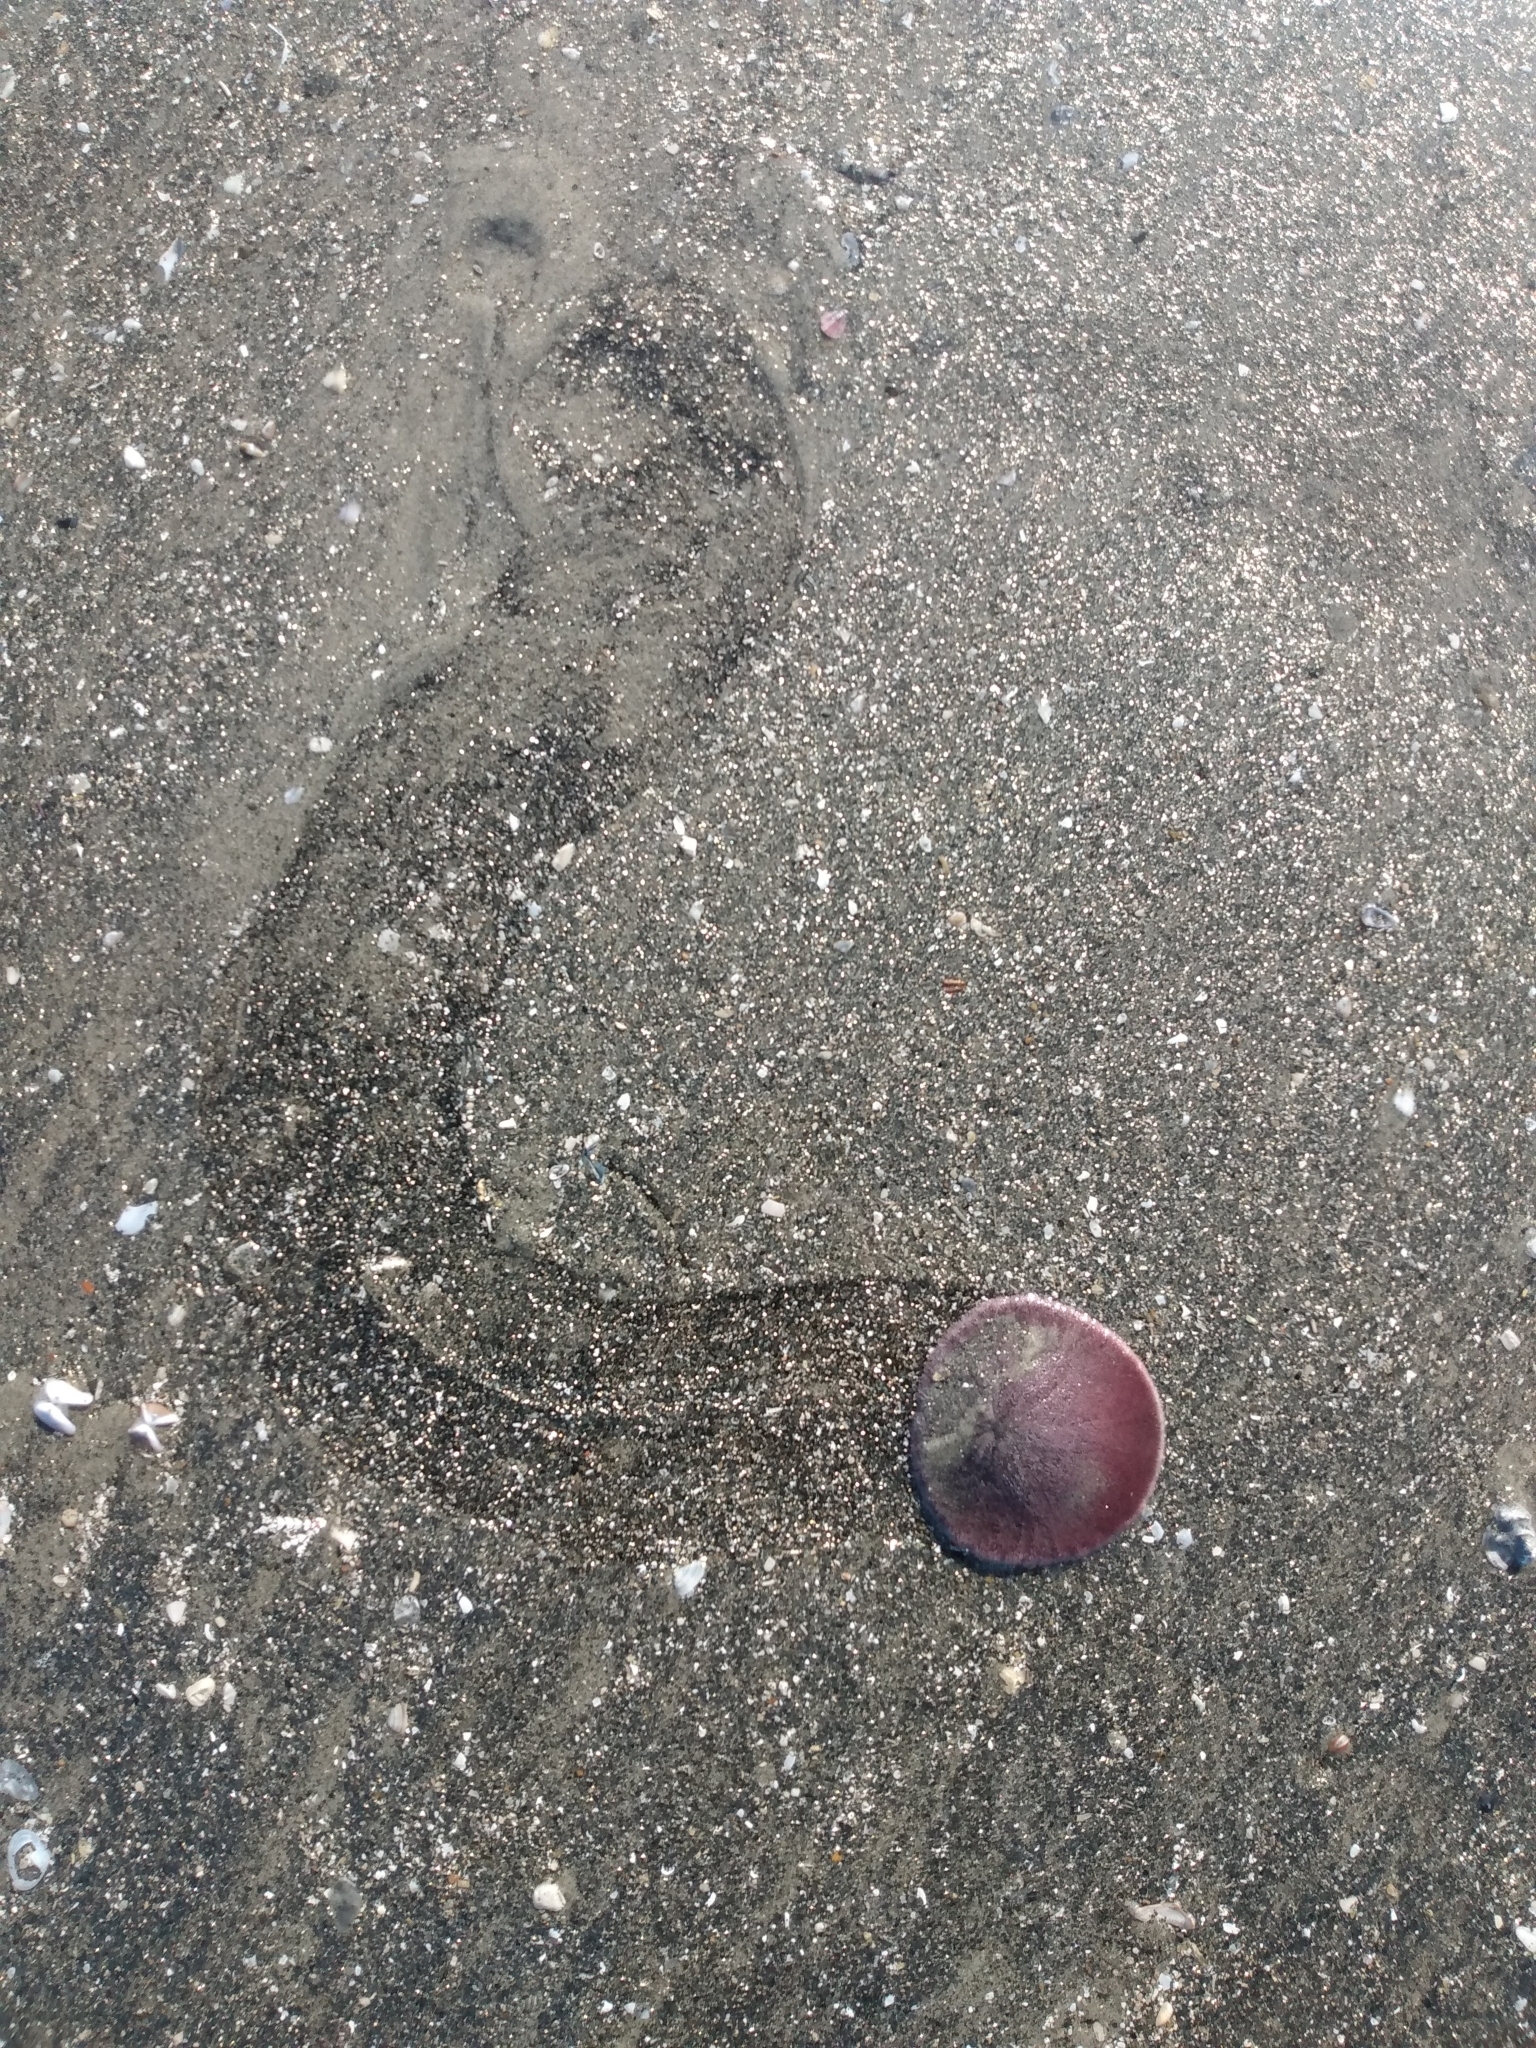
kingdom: Animalia
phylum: Echinodermata
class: Echinoidea
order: Echinolampadacea
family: Dendrasteridae
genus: Dendraster
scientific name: Dendraster excentricus
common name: Eccentric sand dollar sea urchin
